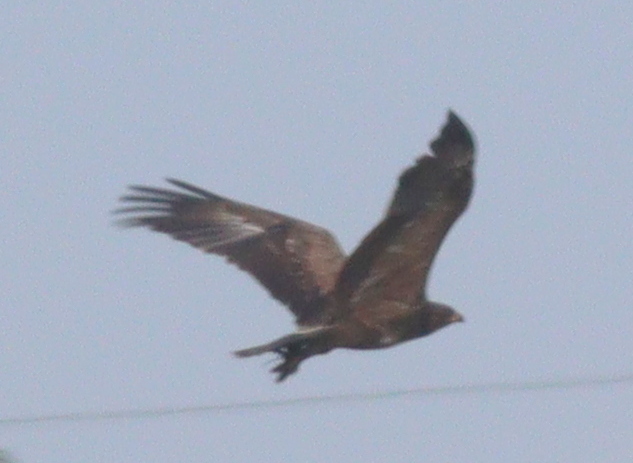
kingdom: Animalia
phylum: Chordata
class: Aves
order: Accipitriformes
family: Accipitridae
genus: Aquila
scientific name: Aquila pomarina
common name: Lesser spotted eagle
